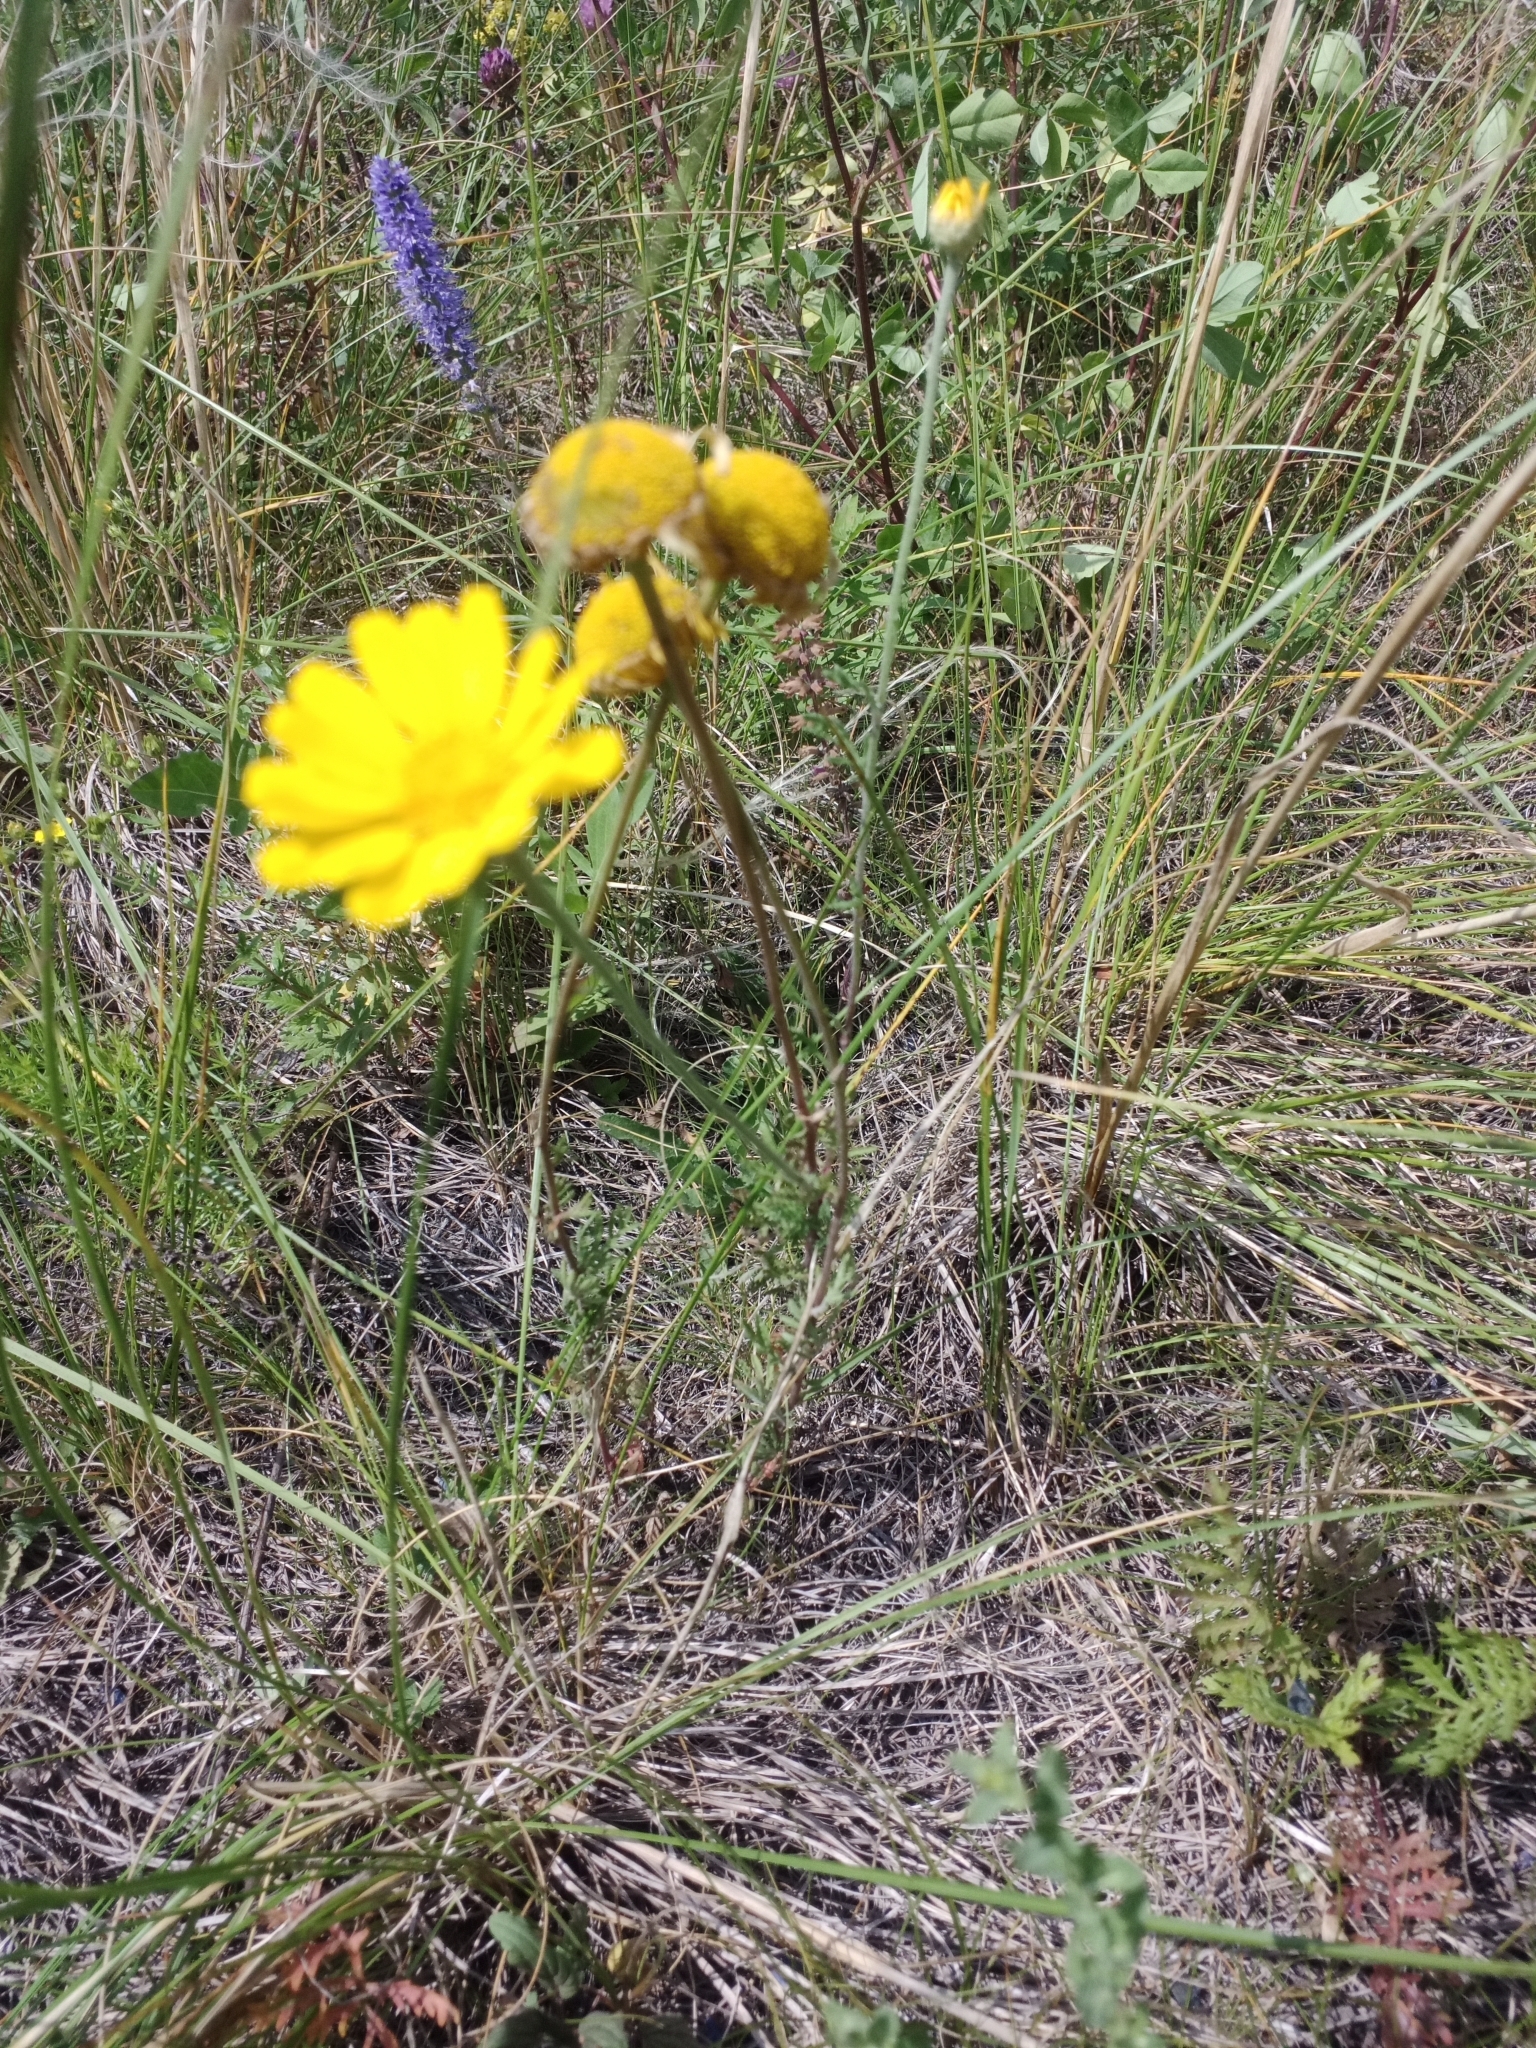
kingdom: Plantae
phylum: Tracheophyta
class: Magnoliopsida
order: Asterales
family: Asteraceae
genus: Cota
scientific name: Cota tinctoria
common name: Golden chamomile
